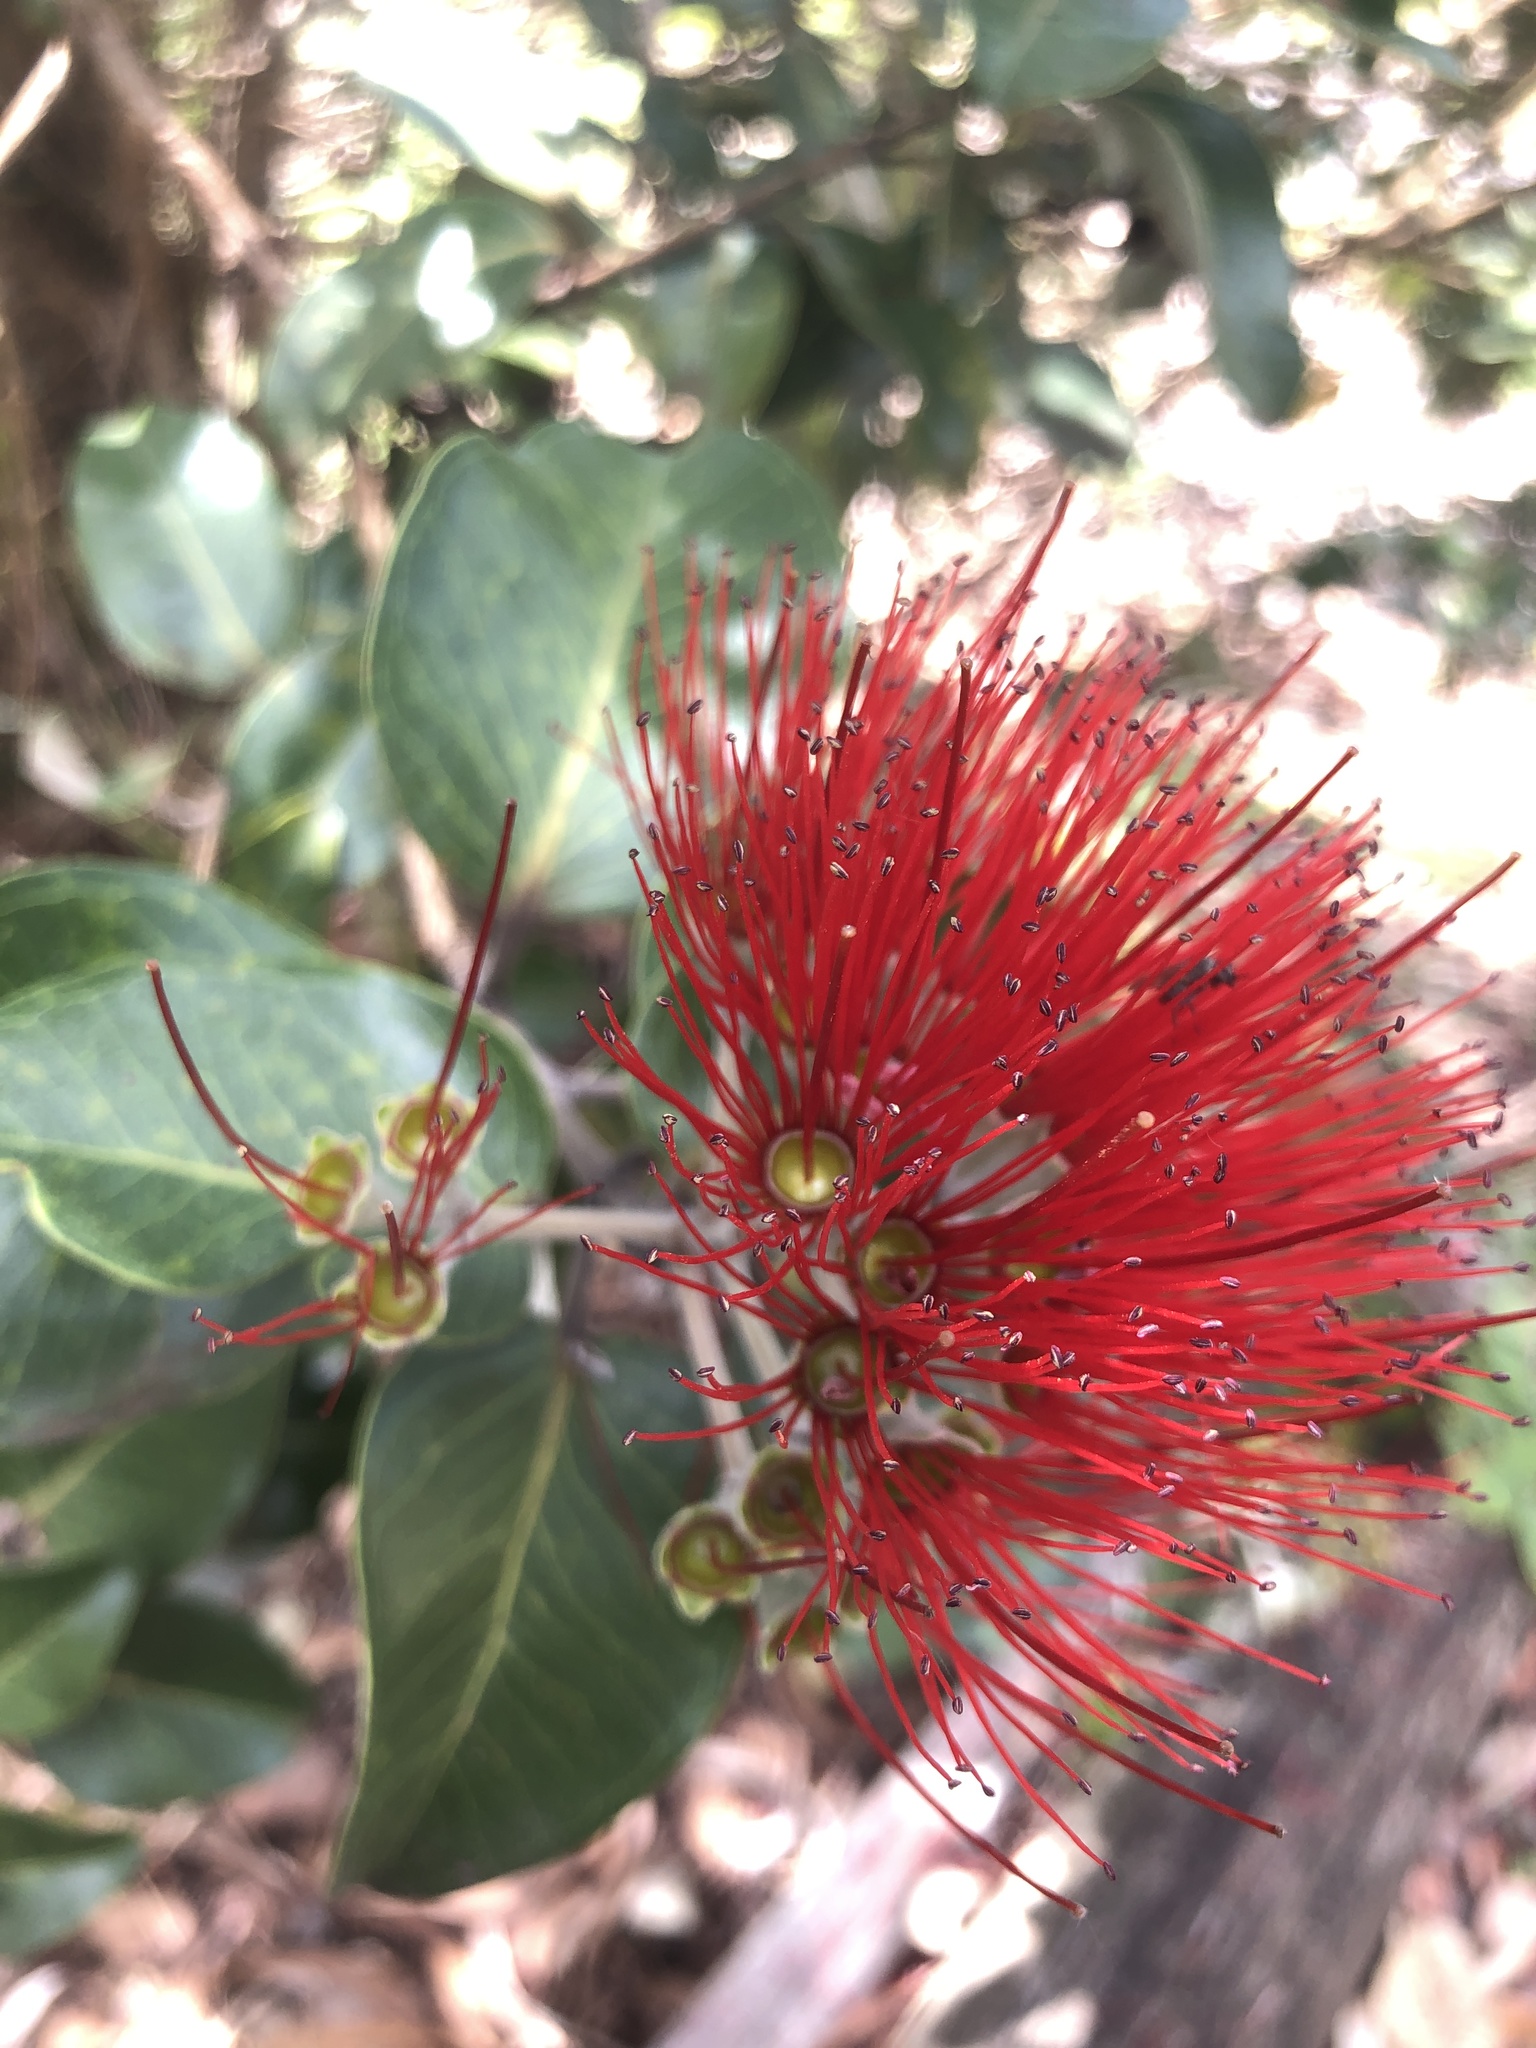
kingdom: Plantae
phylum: Tracheophyta
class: Magnoliopsida
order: Myrtales
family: Myrtaceae
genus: Metrosideros
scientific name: Metrosideros polymorpha
